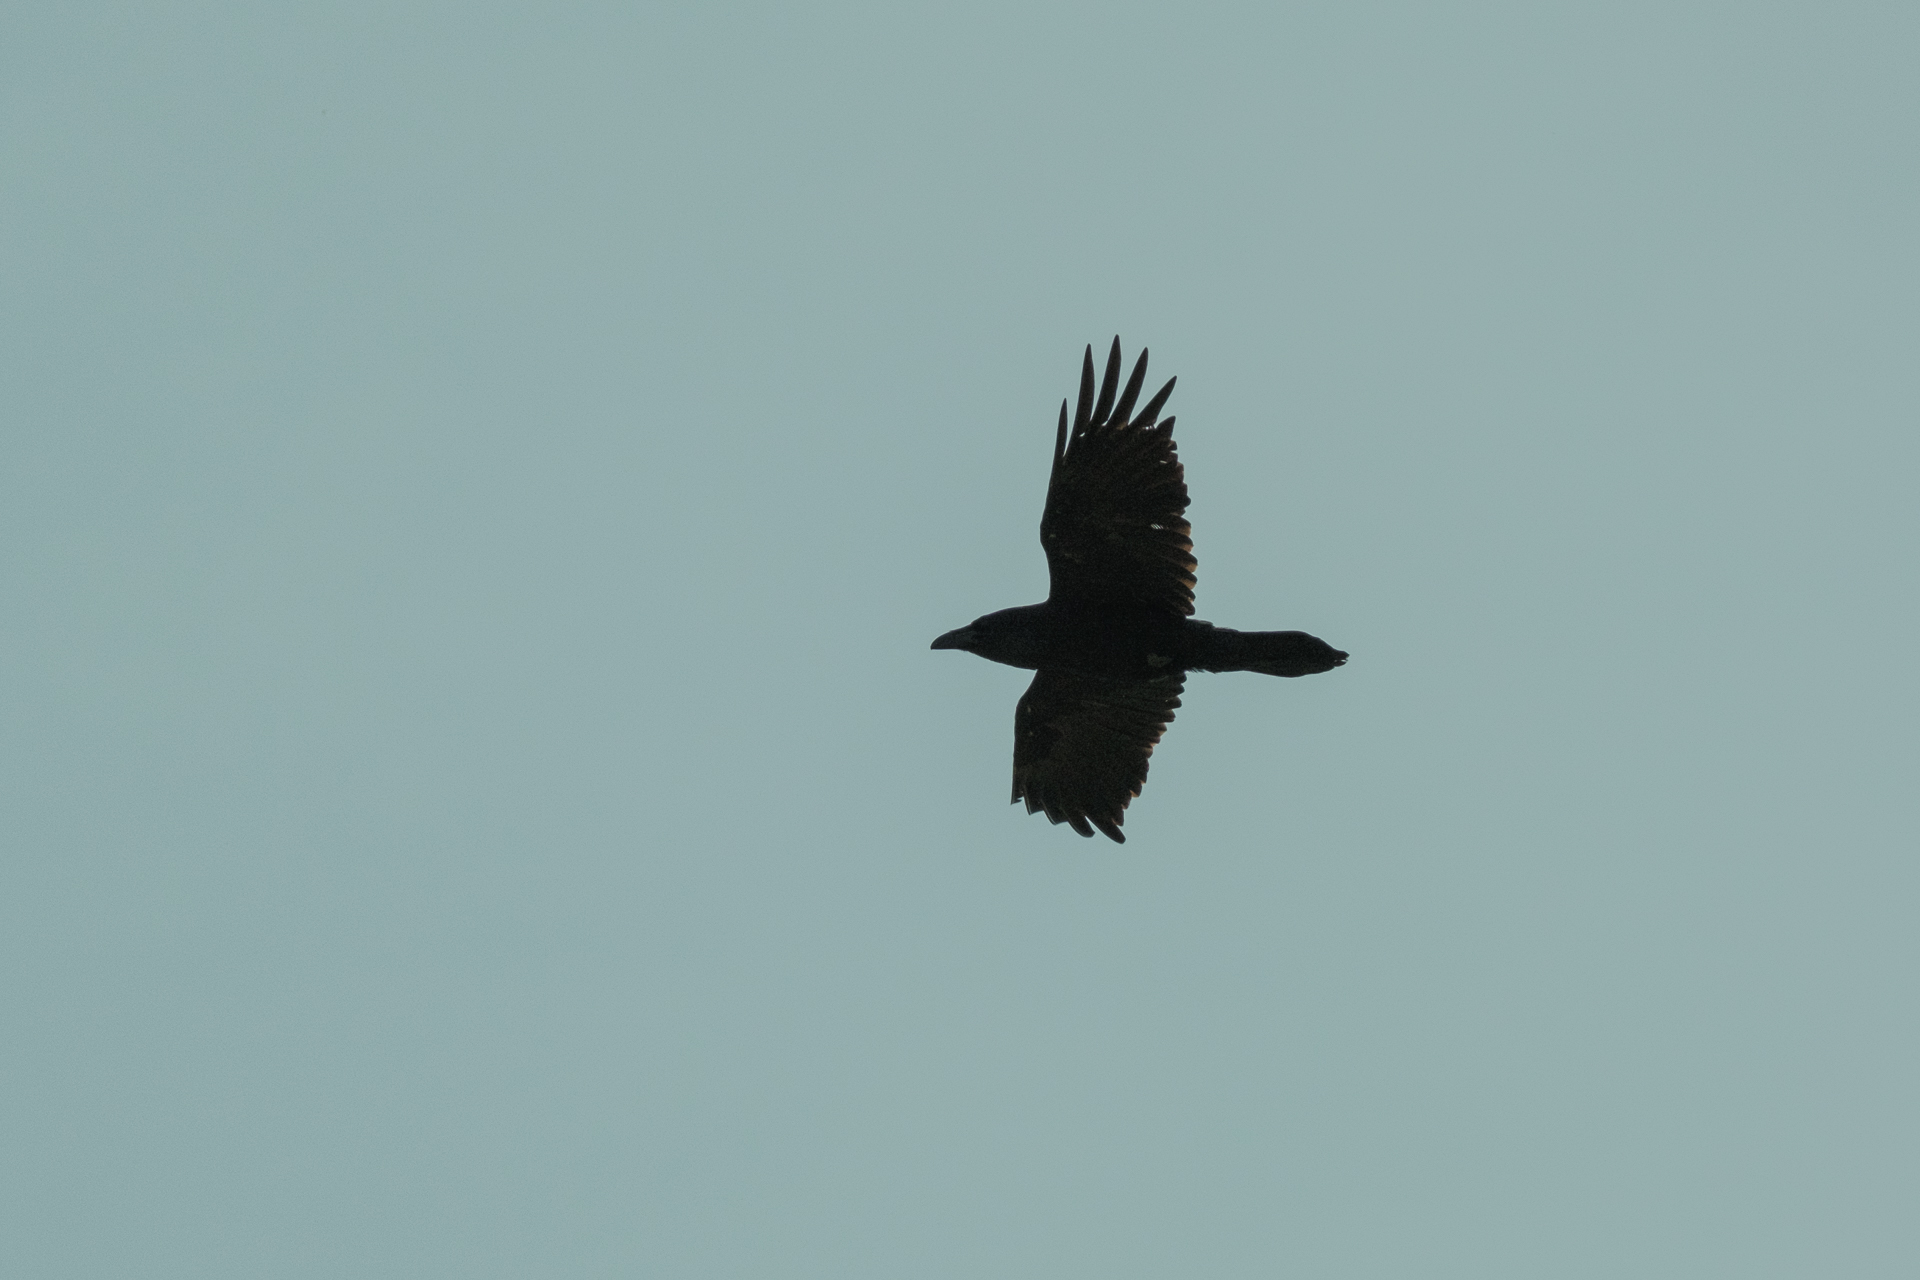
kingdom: Animalia
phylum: Chordata
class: Aves
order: Passeriformes
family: Corvidae
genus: Corvus
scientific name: Corvus corax
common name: Common raven
